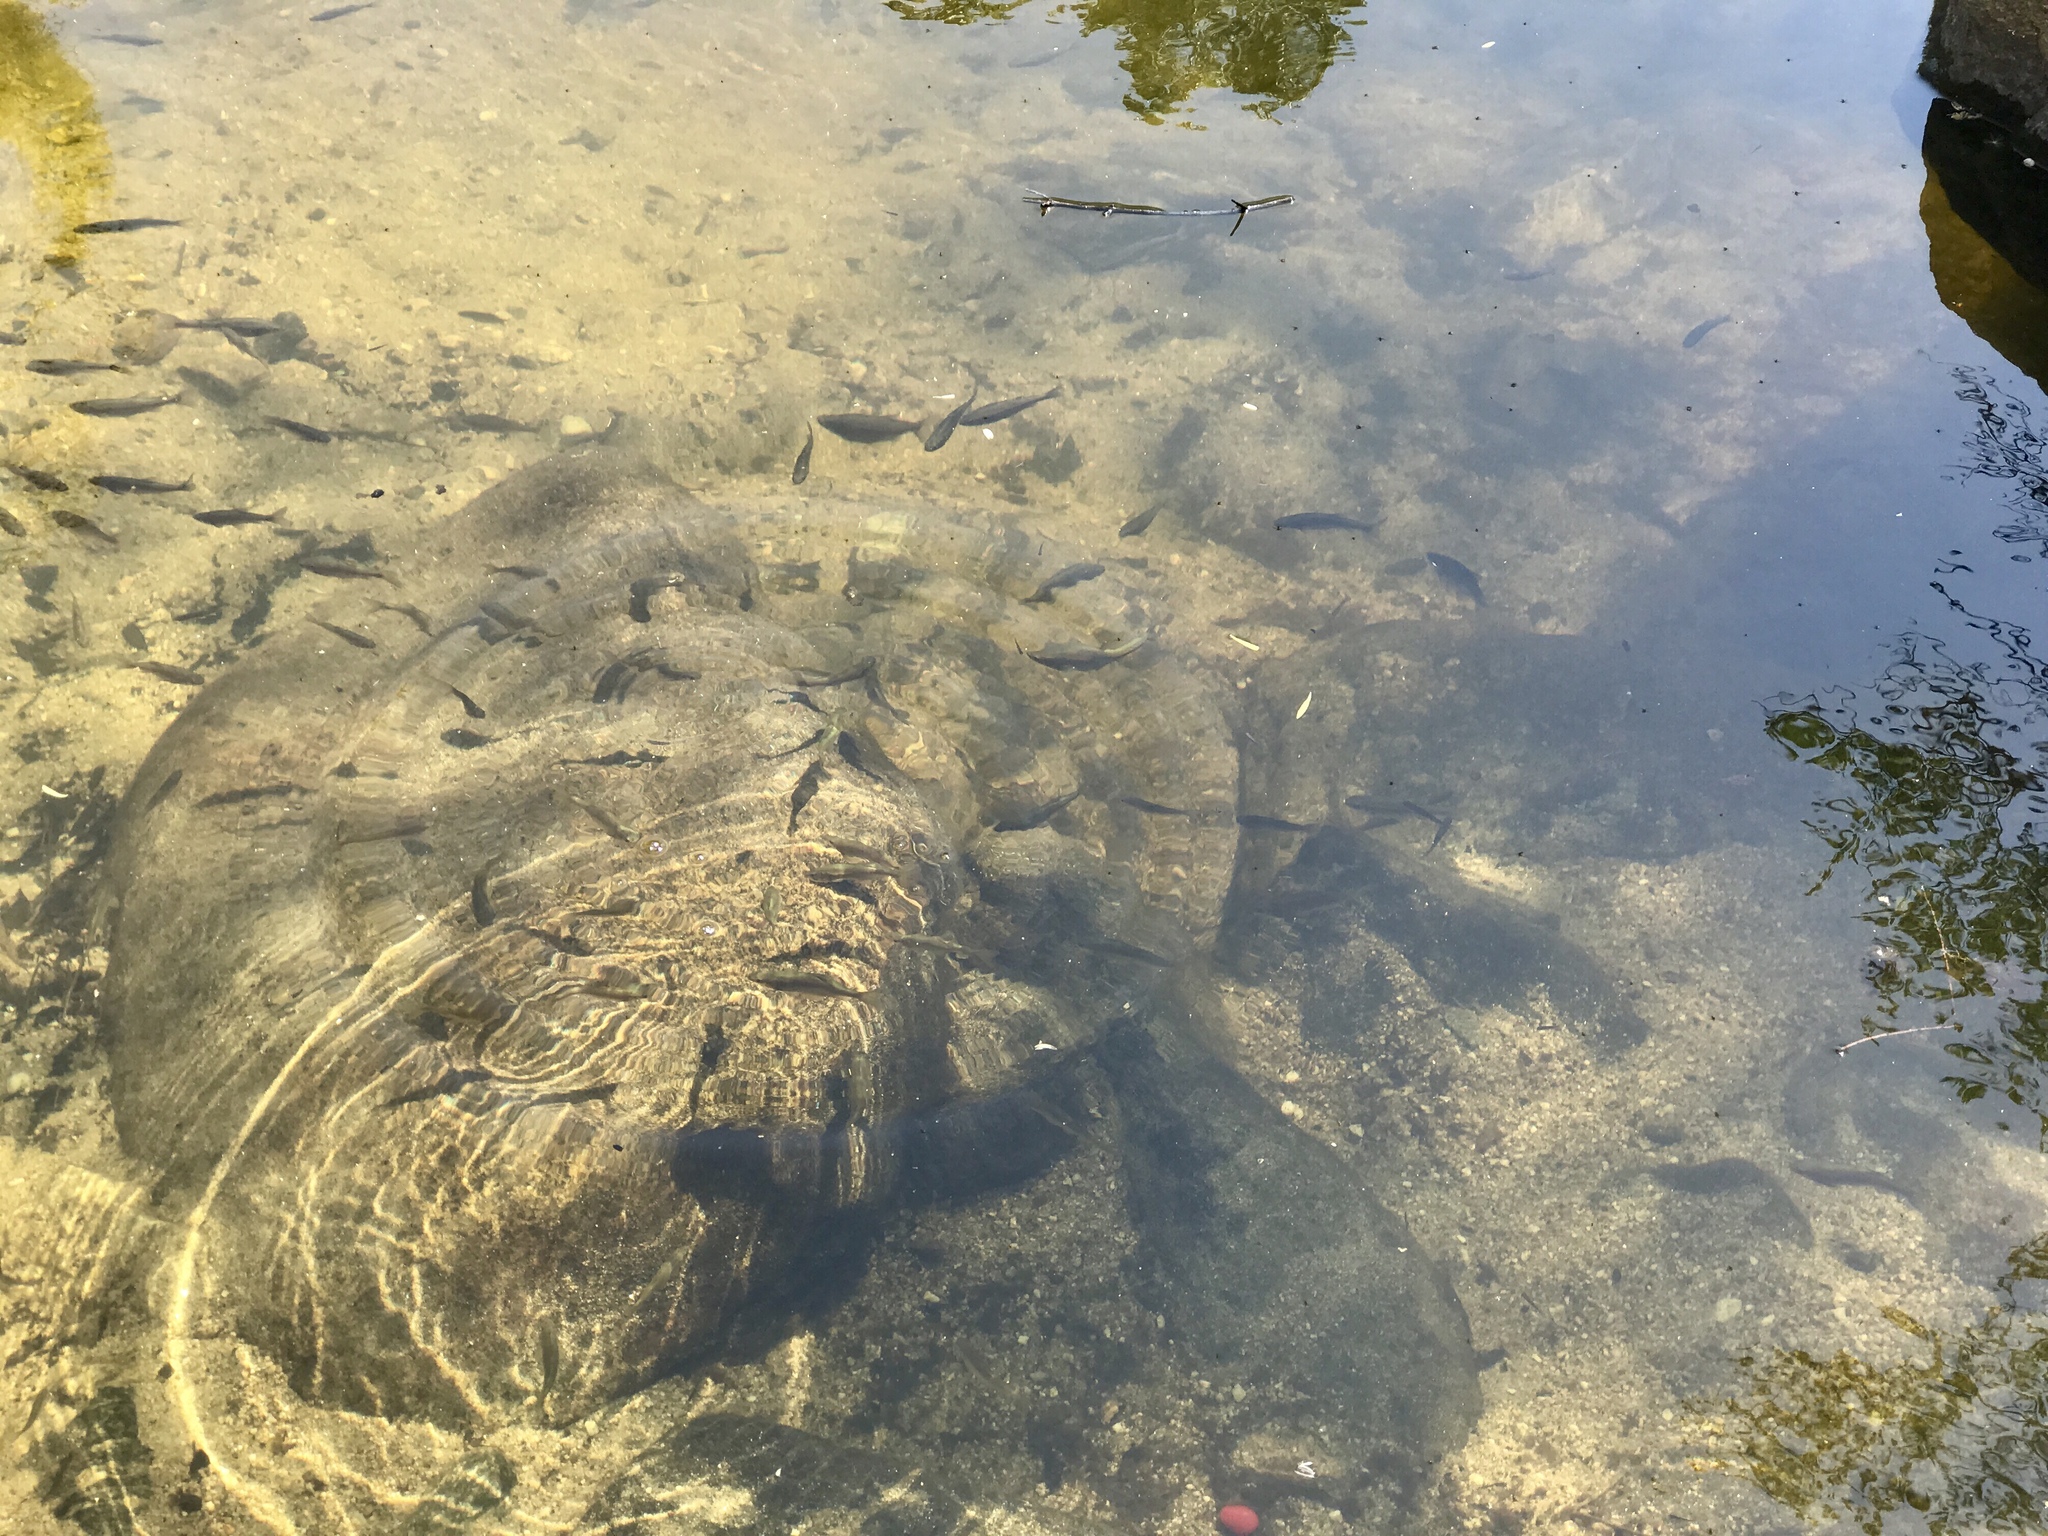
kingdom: Animalia
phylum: Chordata
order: Cypriniformes
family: Cyprinidae
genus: Gila
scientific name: Gila robusta
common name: Roundtail chub
